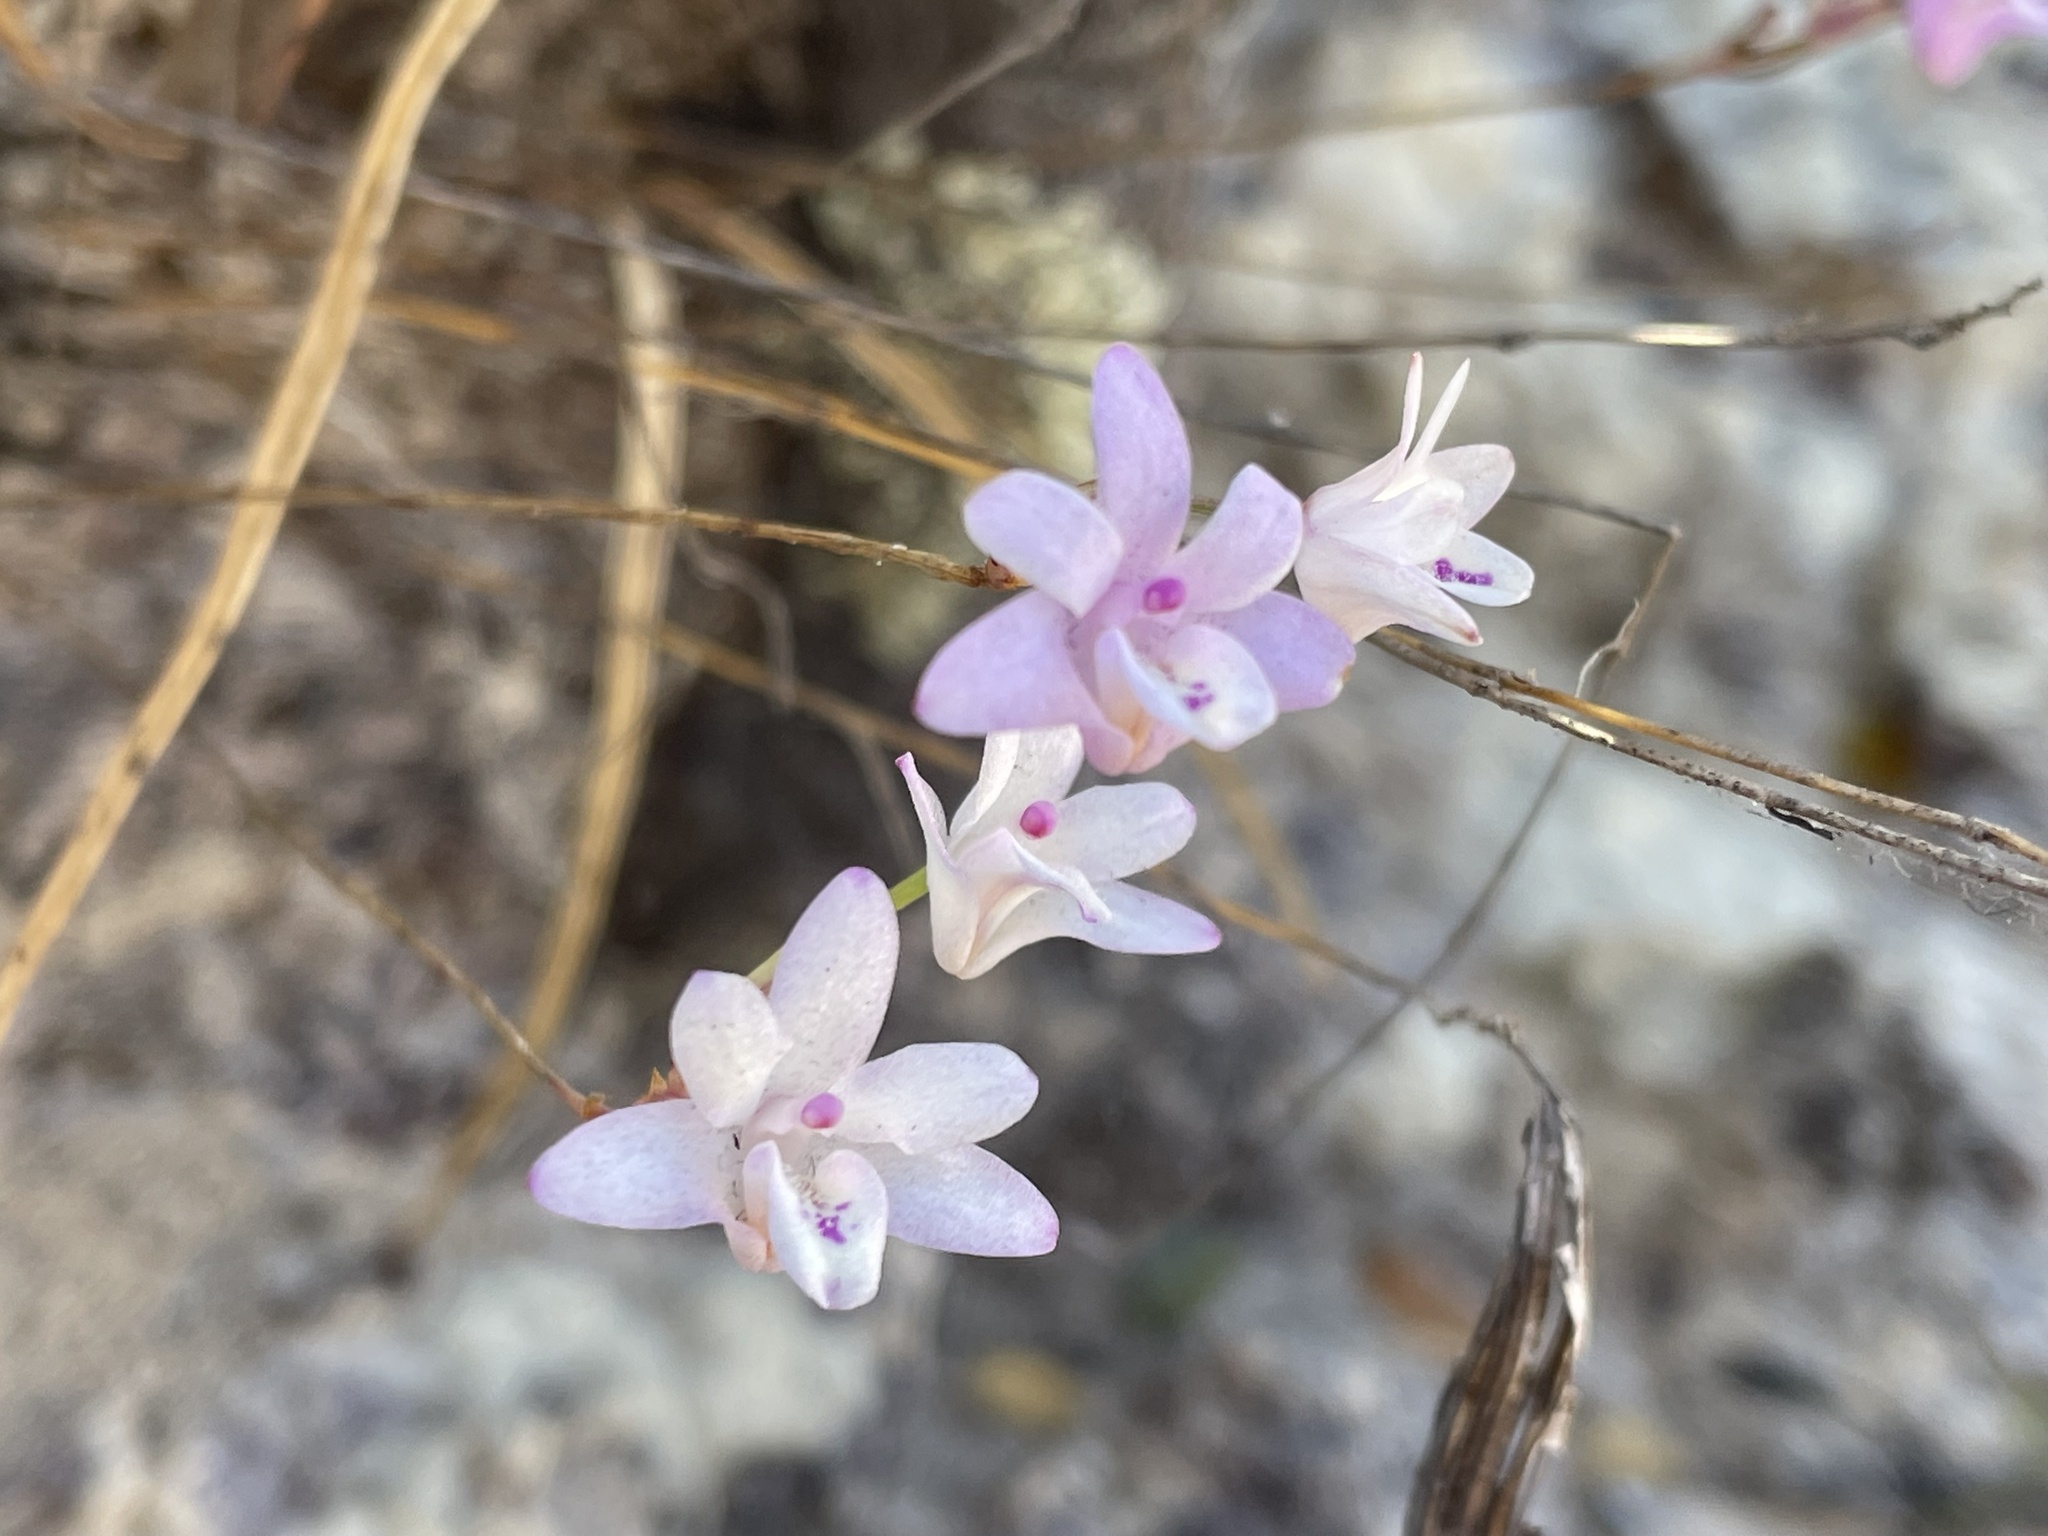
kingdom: Plantae
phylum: Tracheophyta
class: Liliopsida
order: Asparagales
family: Orchidaceae
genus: Polystachya
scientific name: Polystachya dendrobiiflora
